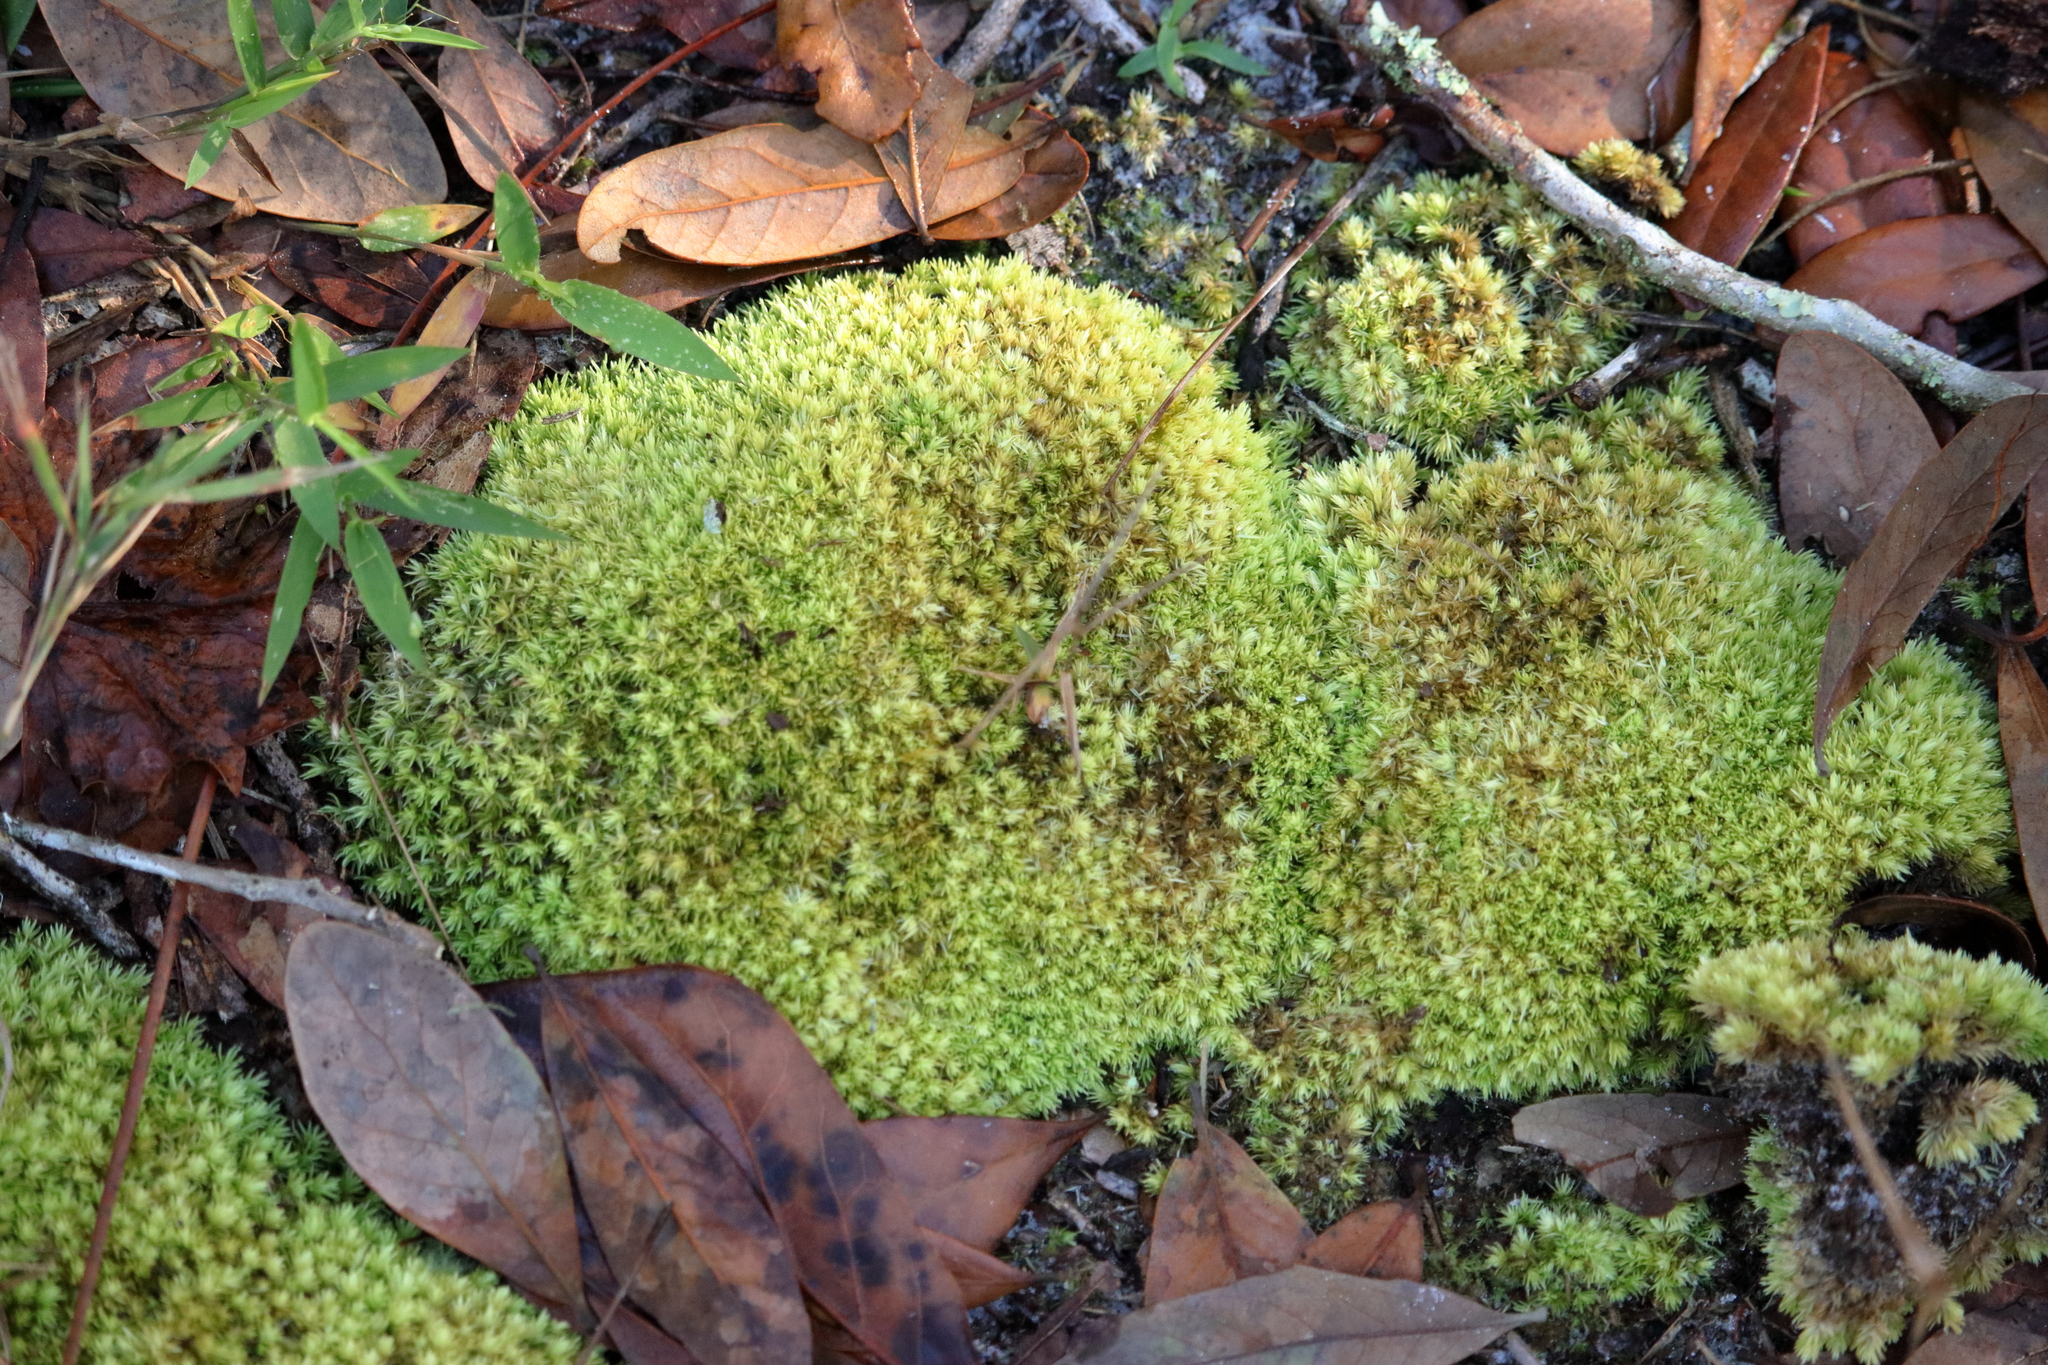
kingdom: Plantae
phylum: Bryophyta
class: Bryopsida
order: Dicranales
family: Leucobryaceae
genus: Leucobryum
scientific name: Leucobryum albidum
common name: White moss
